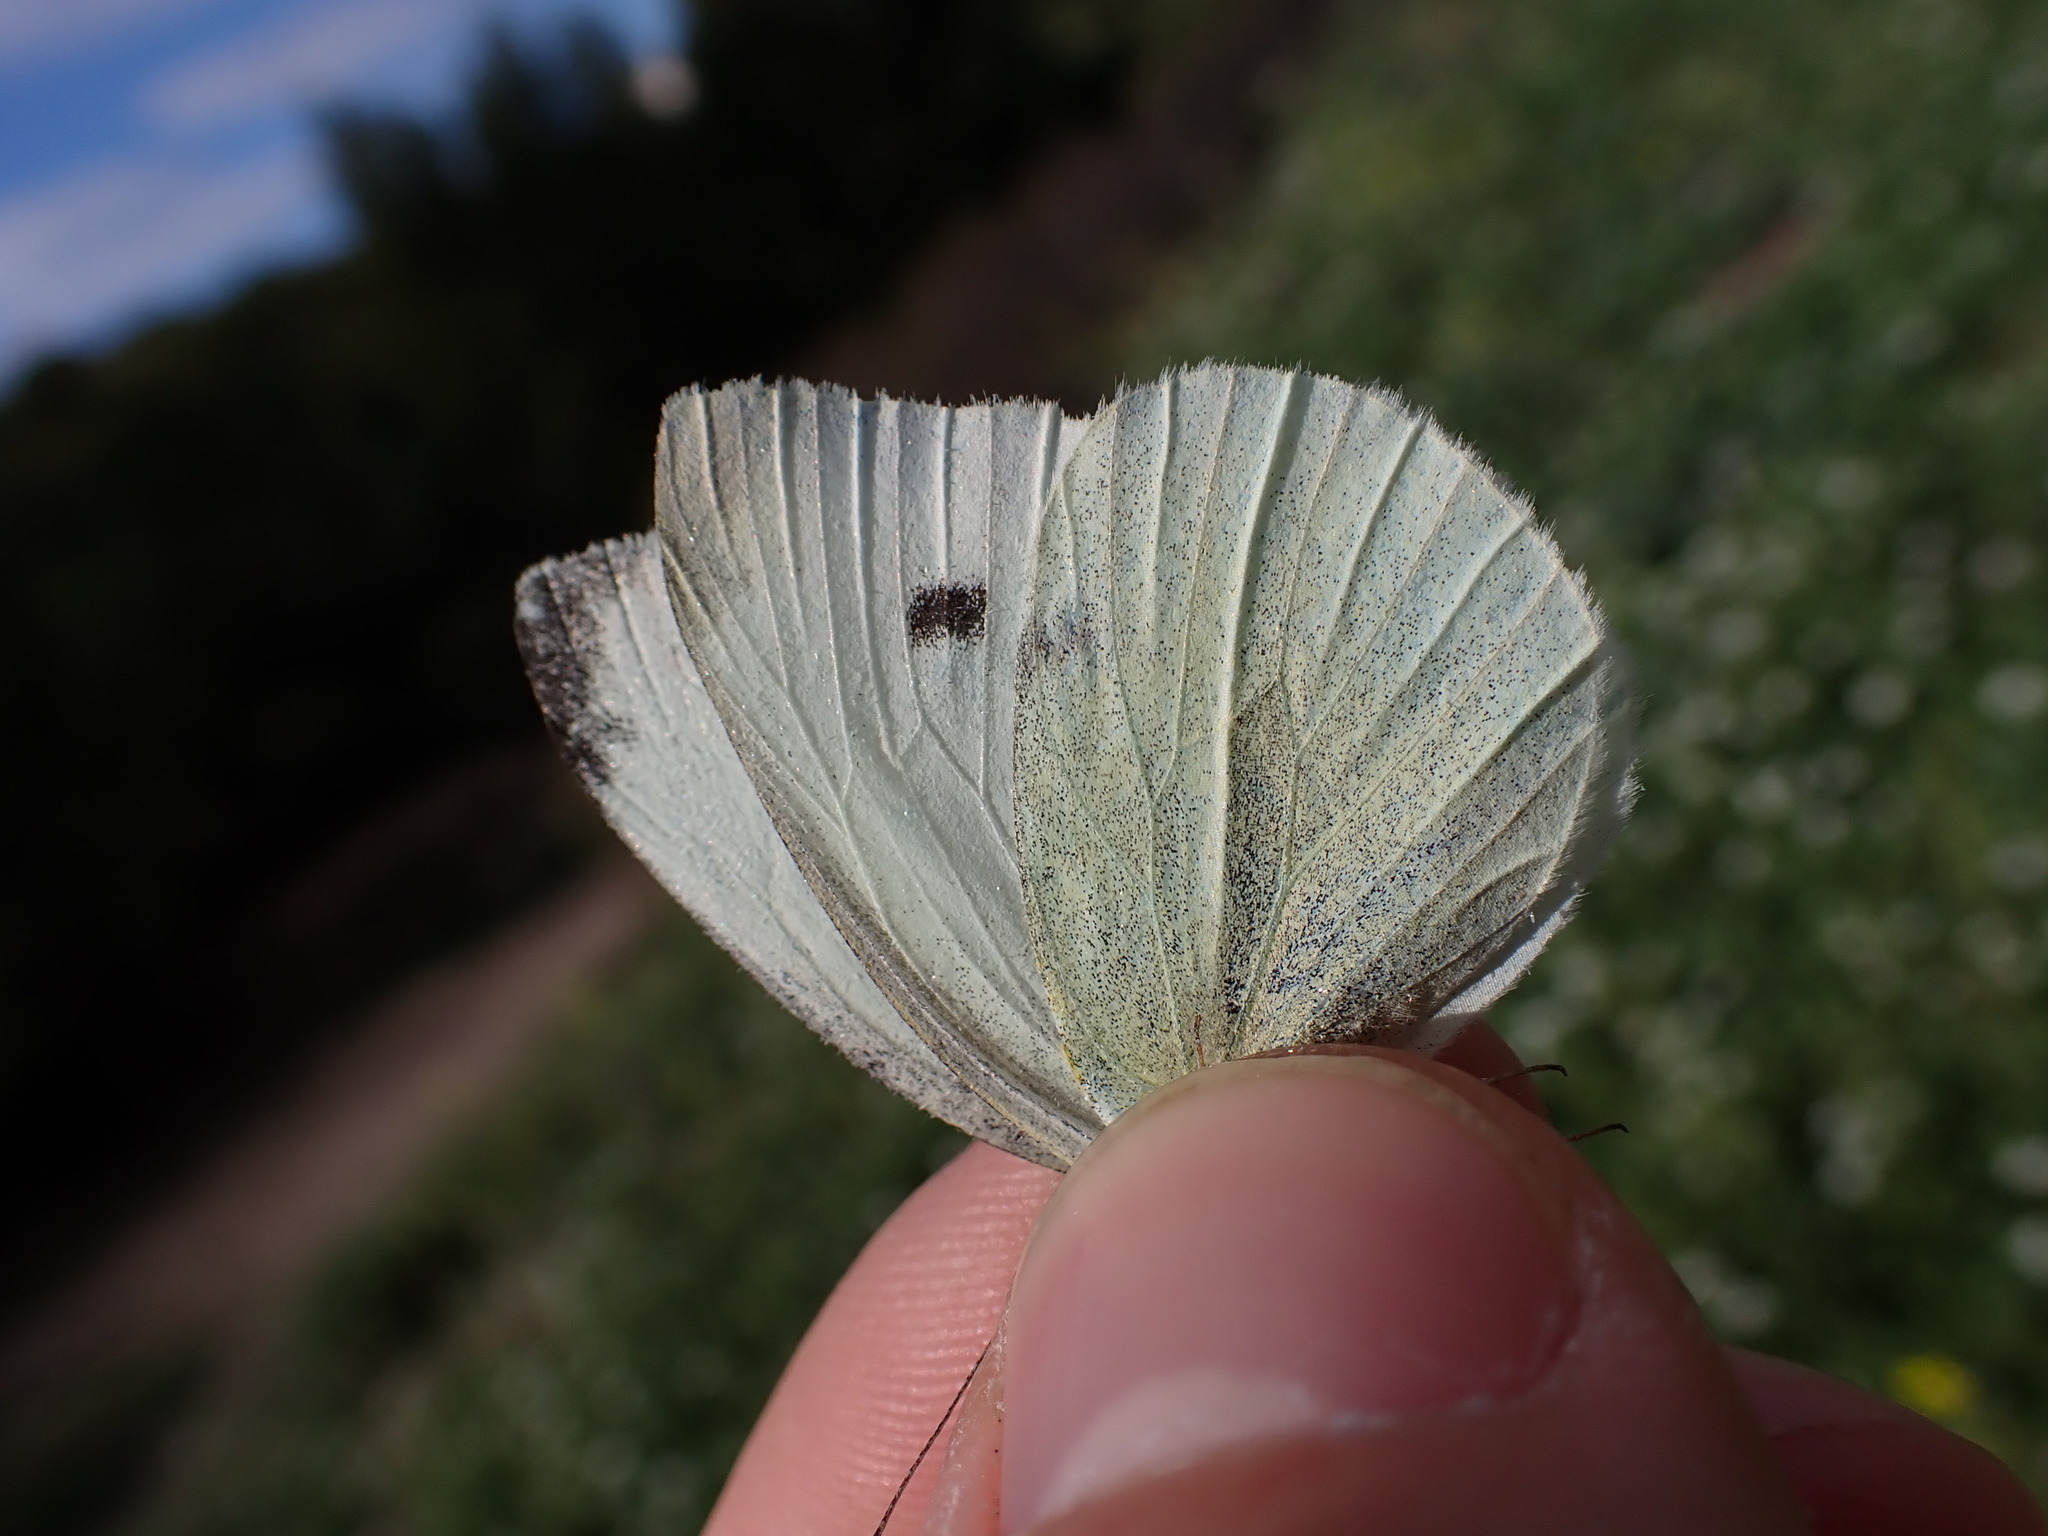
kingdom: Animalia
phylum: Arthropoda
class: Insecta
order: Lepidoptera
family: Pieridae
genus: Pieris
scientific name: Pieris rapae
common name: Small white
